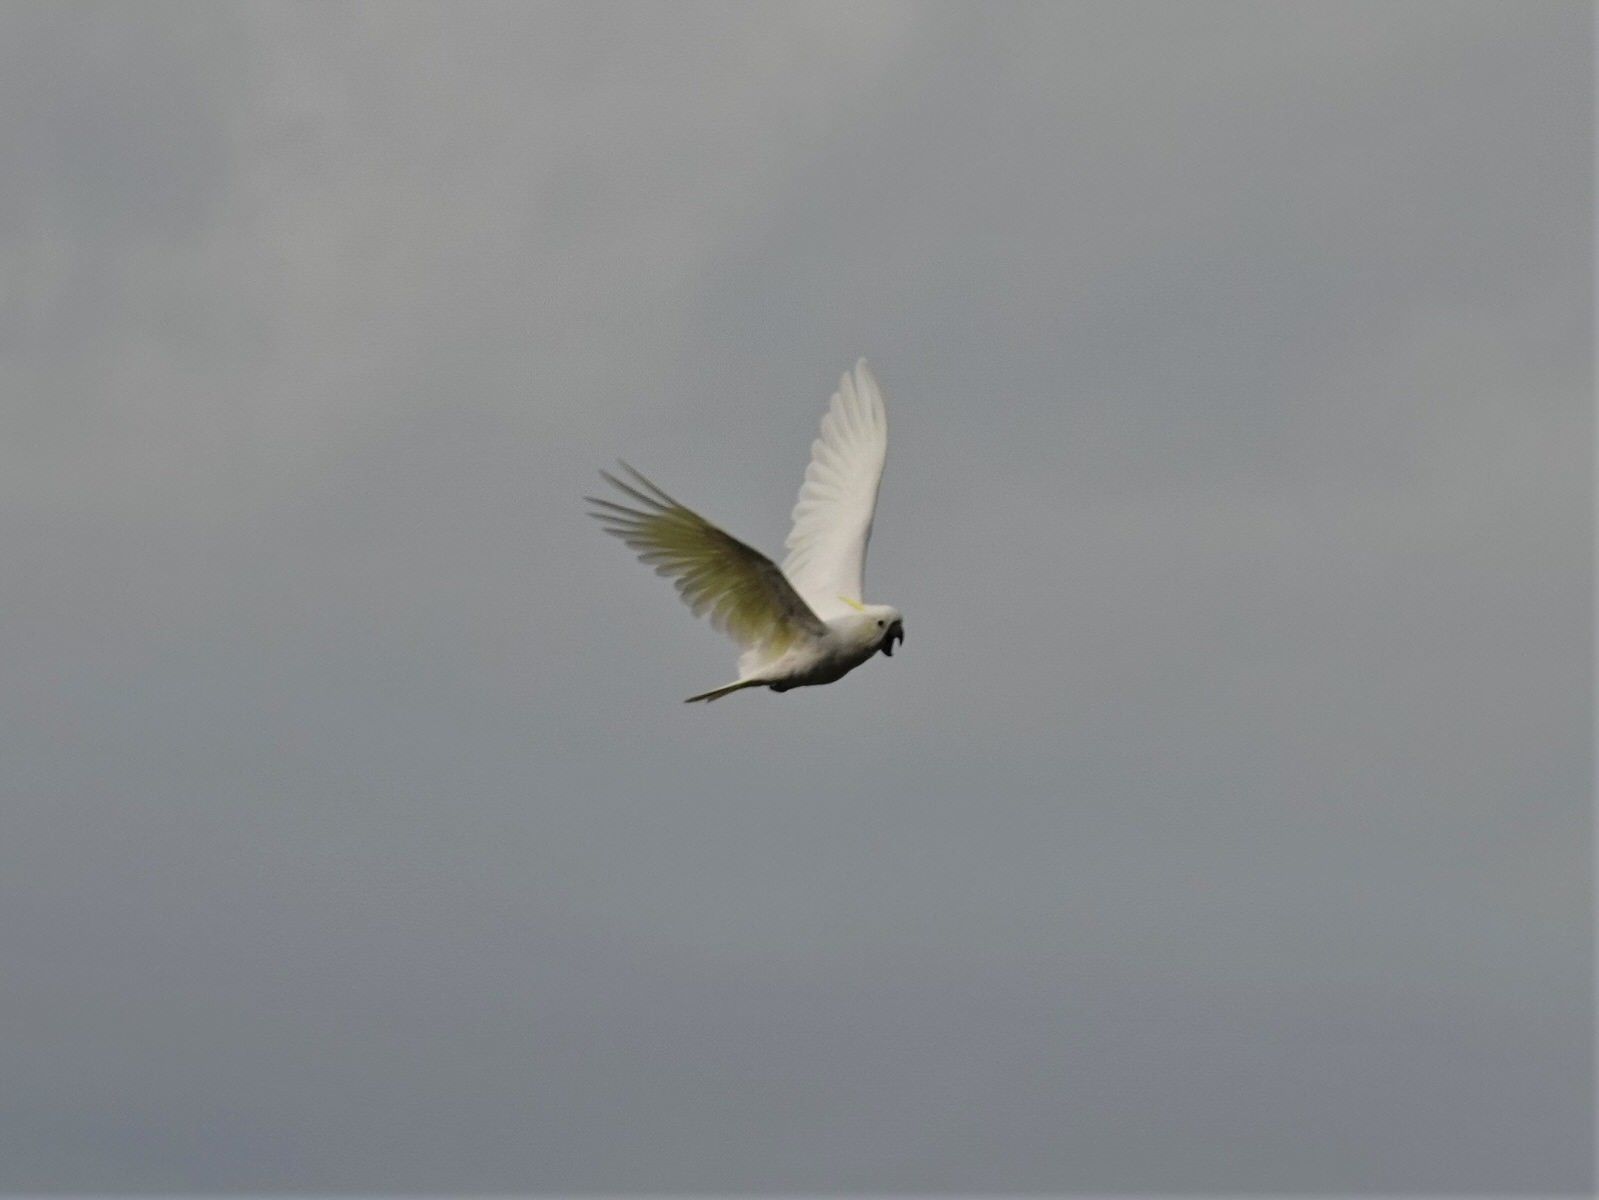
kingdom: Animalia
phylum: Chordata
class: Aves
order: Psittaciformes
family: Psittacidae
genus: Cacatua
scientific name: Cacatua galerita
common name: Sulphur-crested cockatoo
